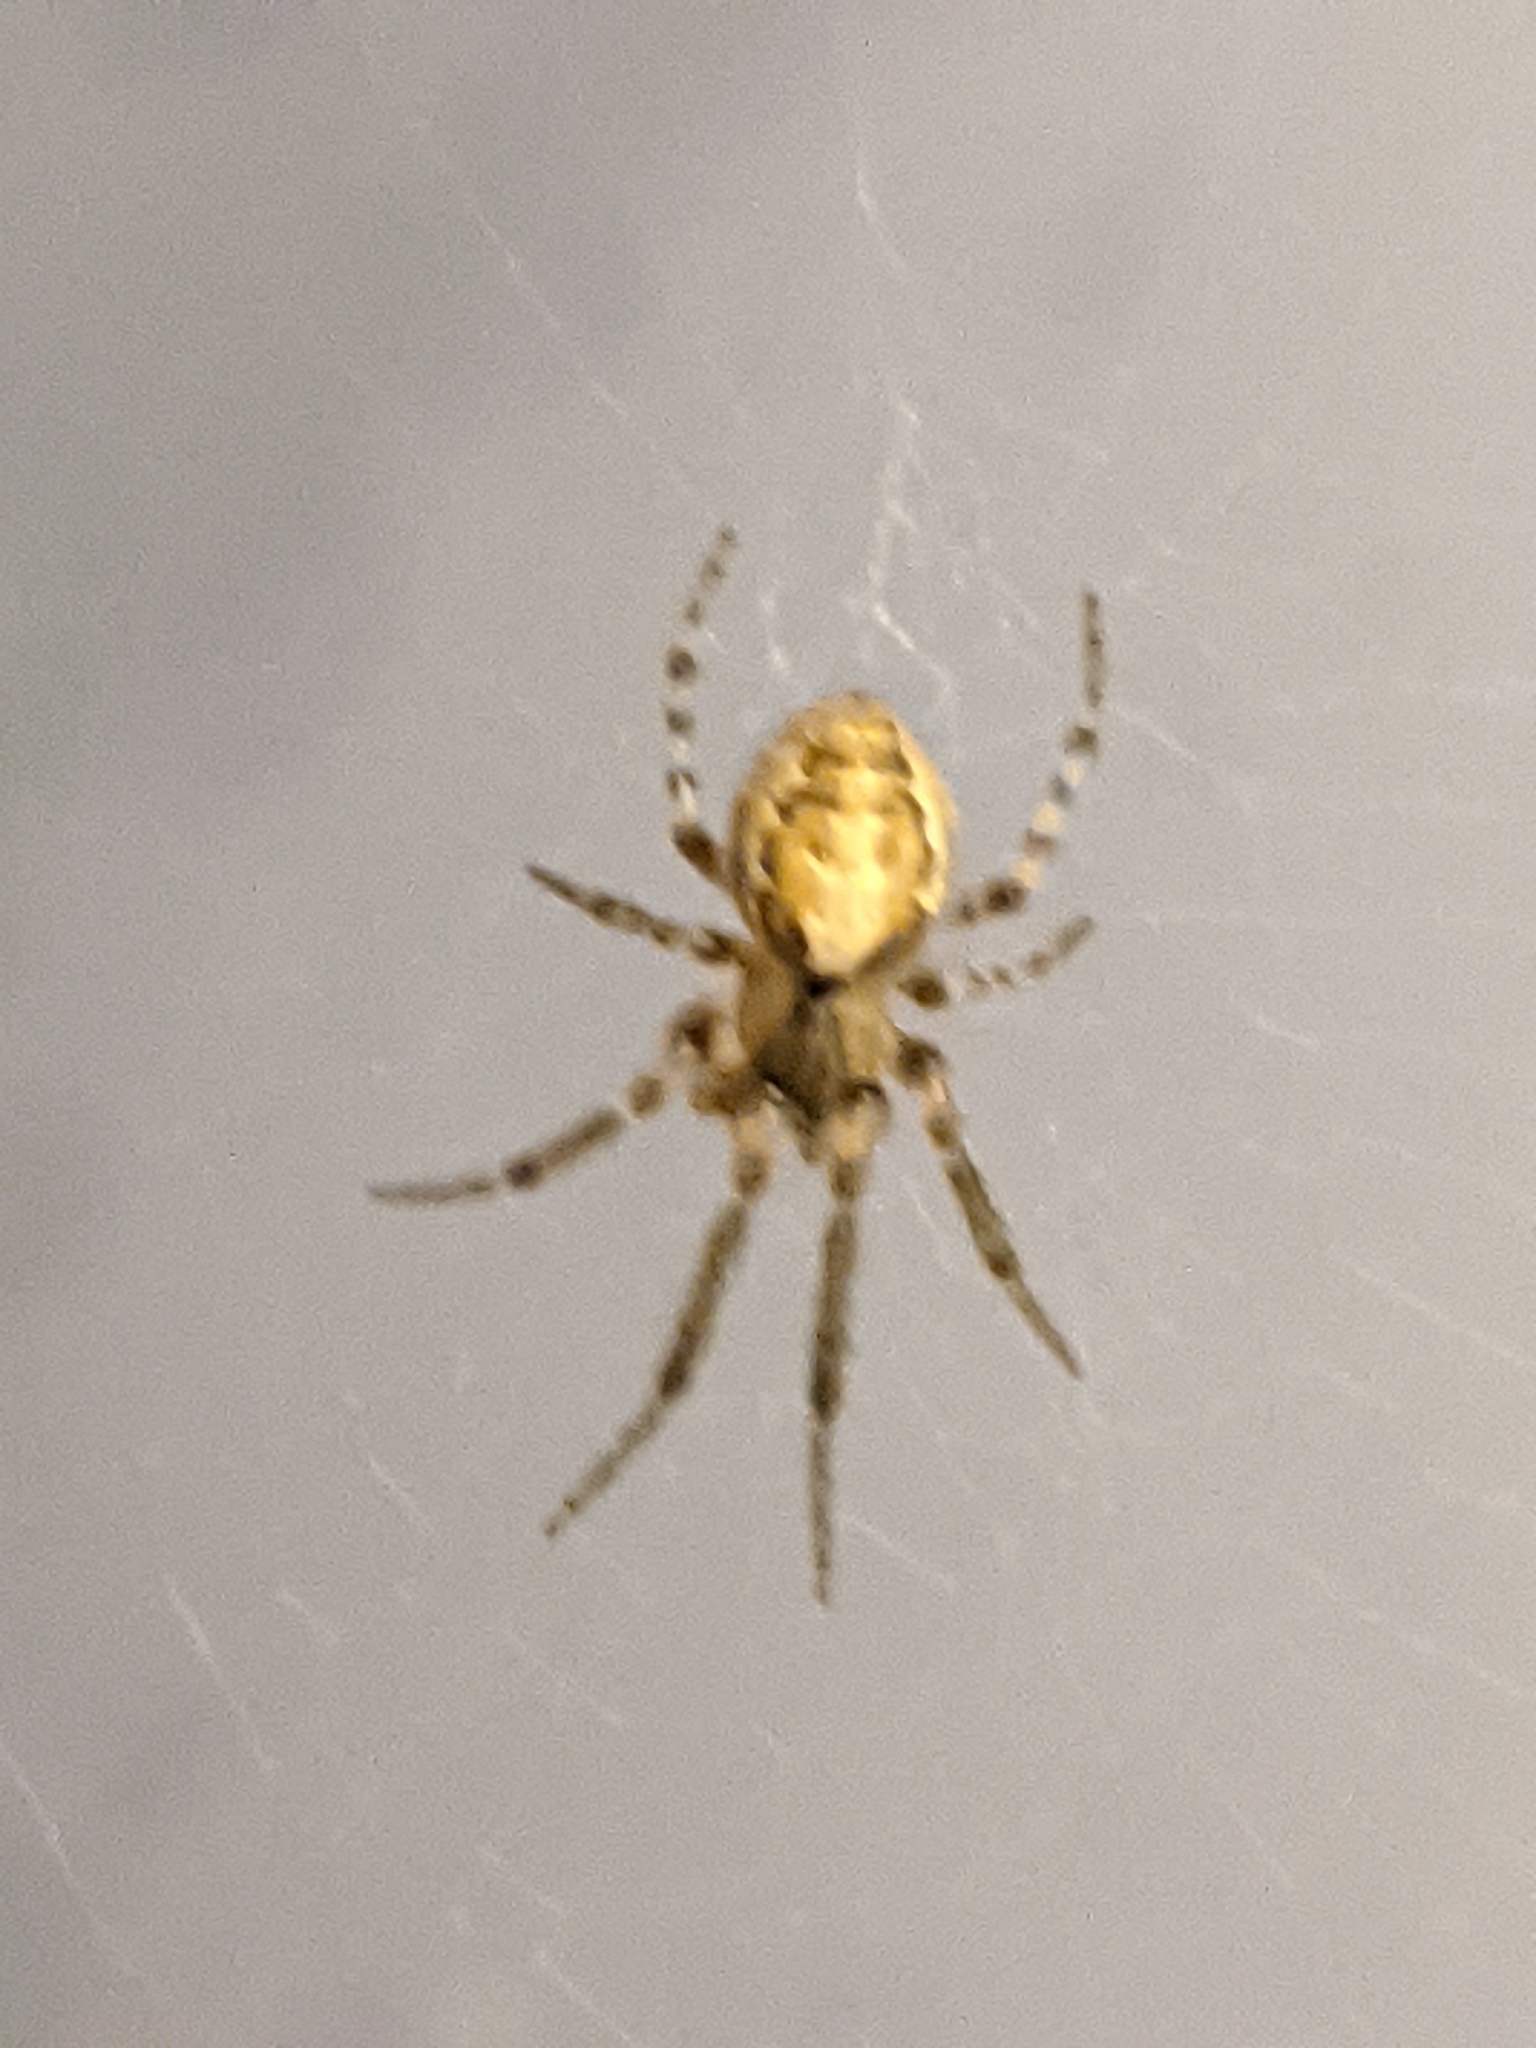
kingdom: Animalia
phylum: Arthropoda
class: Arachnida
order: Araneae
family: Araneidae
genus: Zygiella
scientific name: Zygiella x-notata
